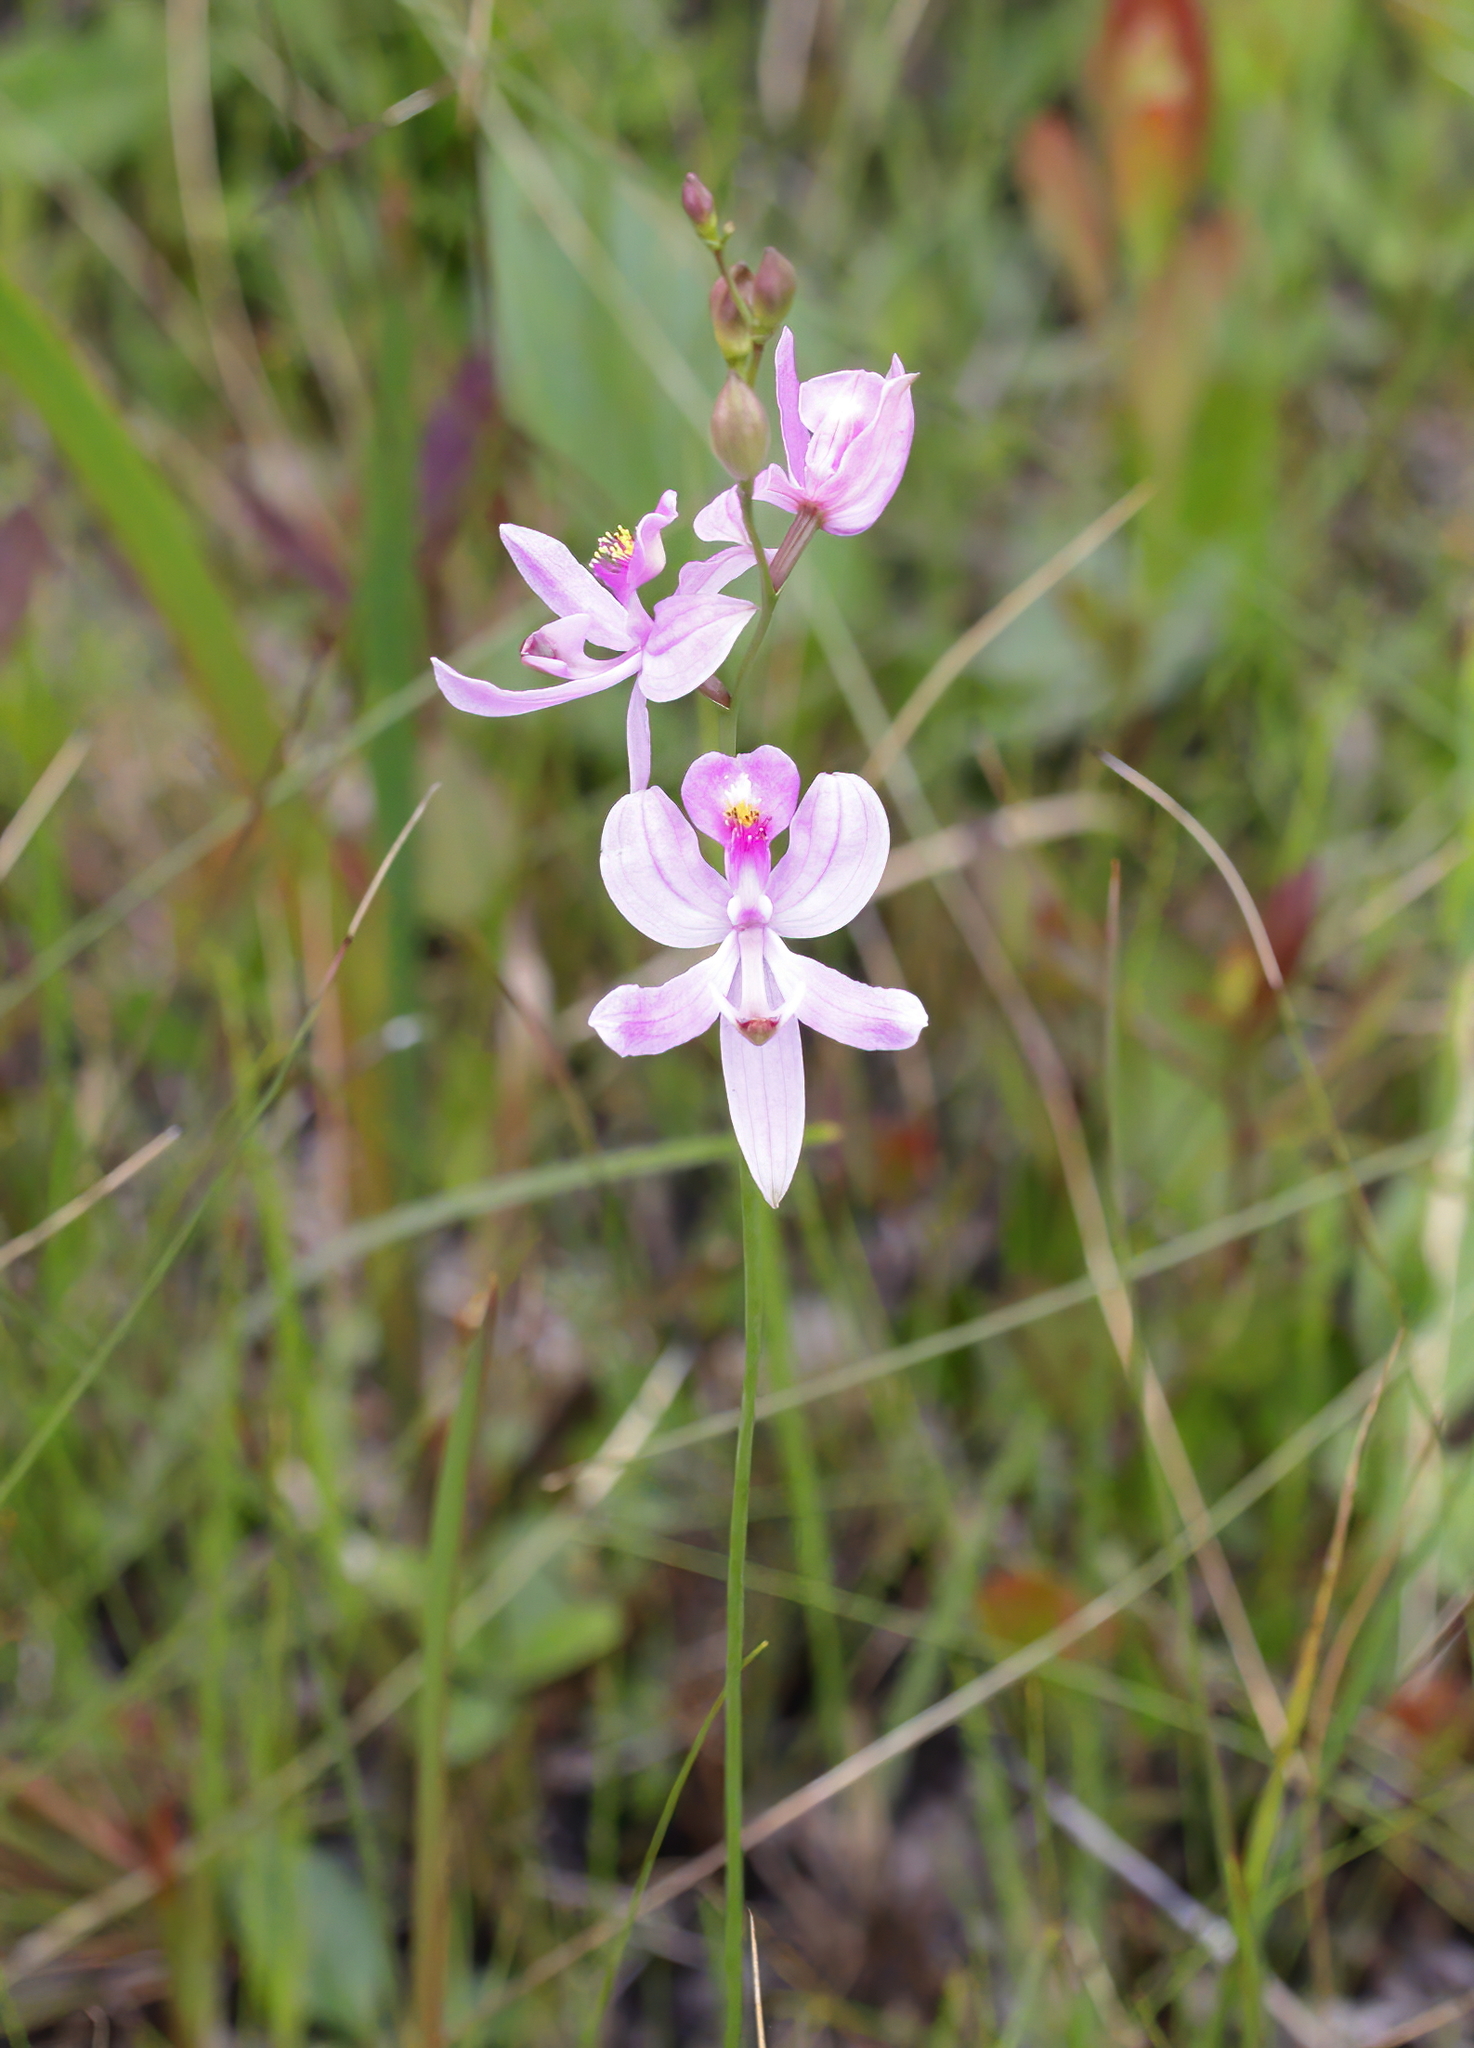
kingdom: Plantae
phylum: Tracheophyta
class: Liliopsida
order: Asparagales
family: Orchidaceae
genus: Calopogon
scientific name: Calopogon pallidus
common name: Pale grasspink
